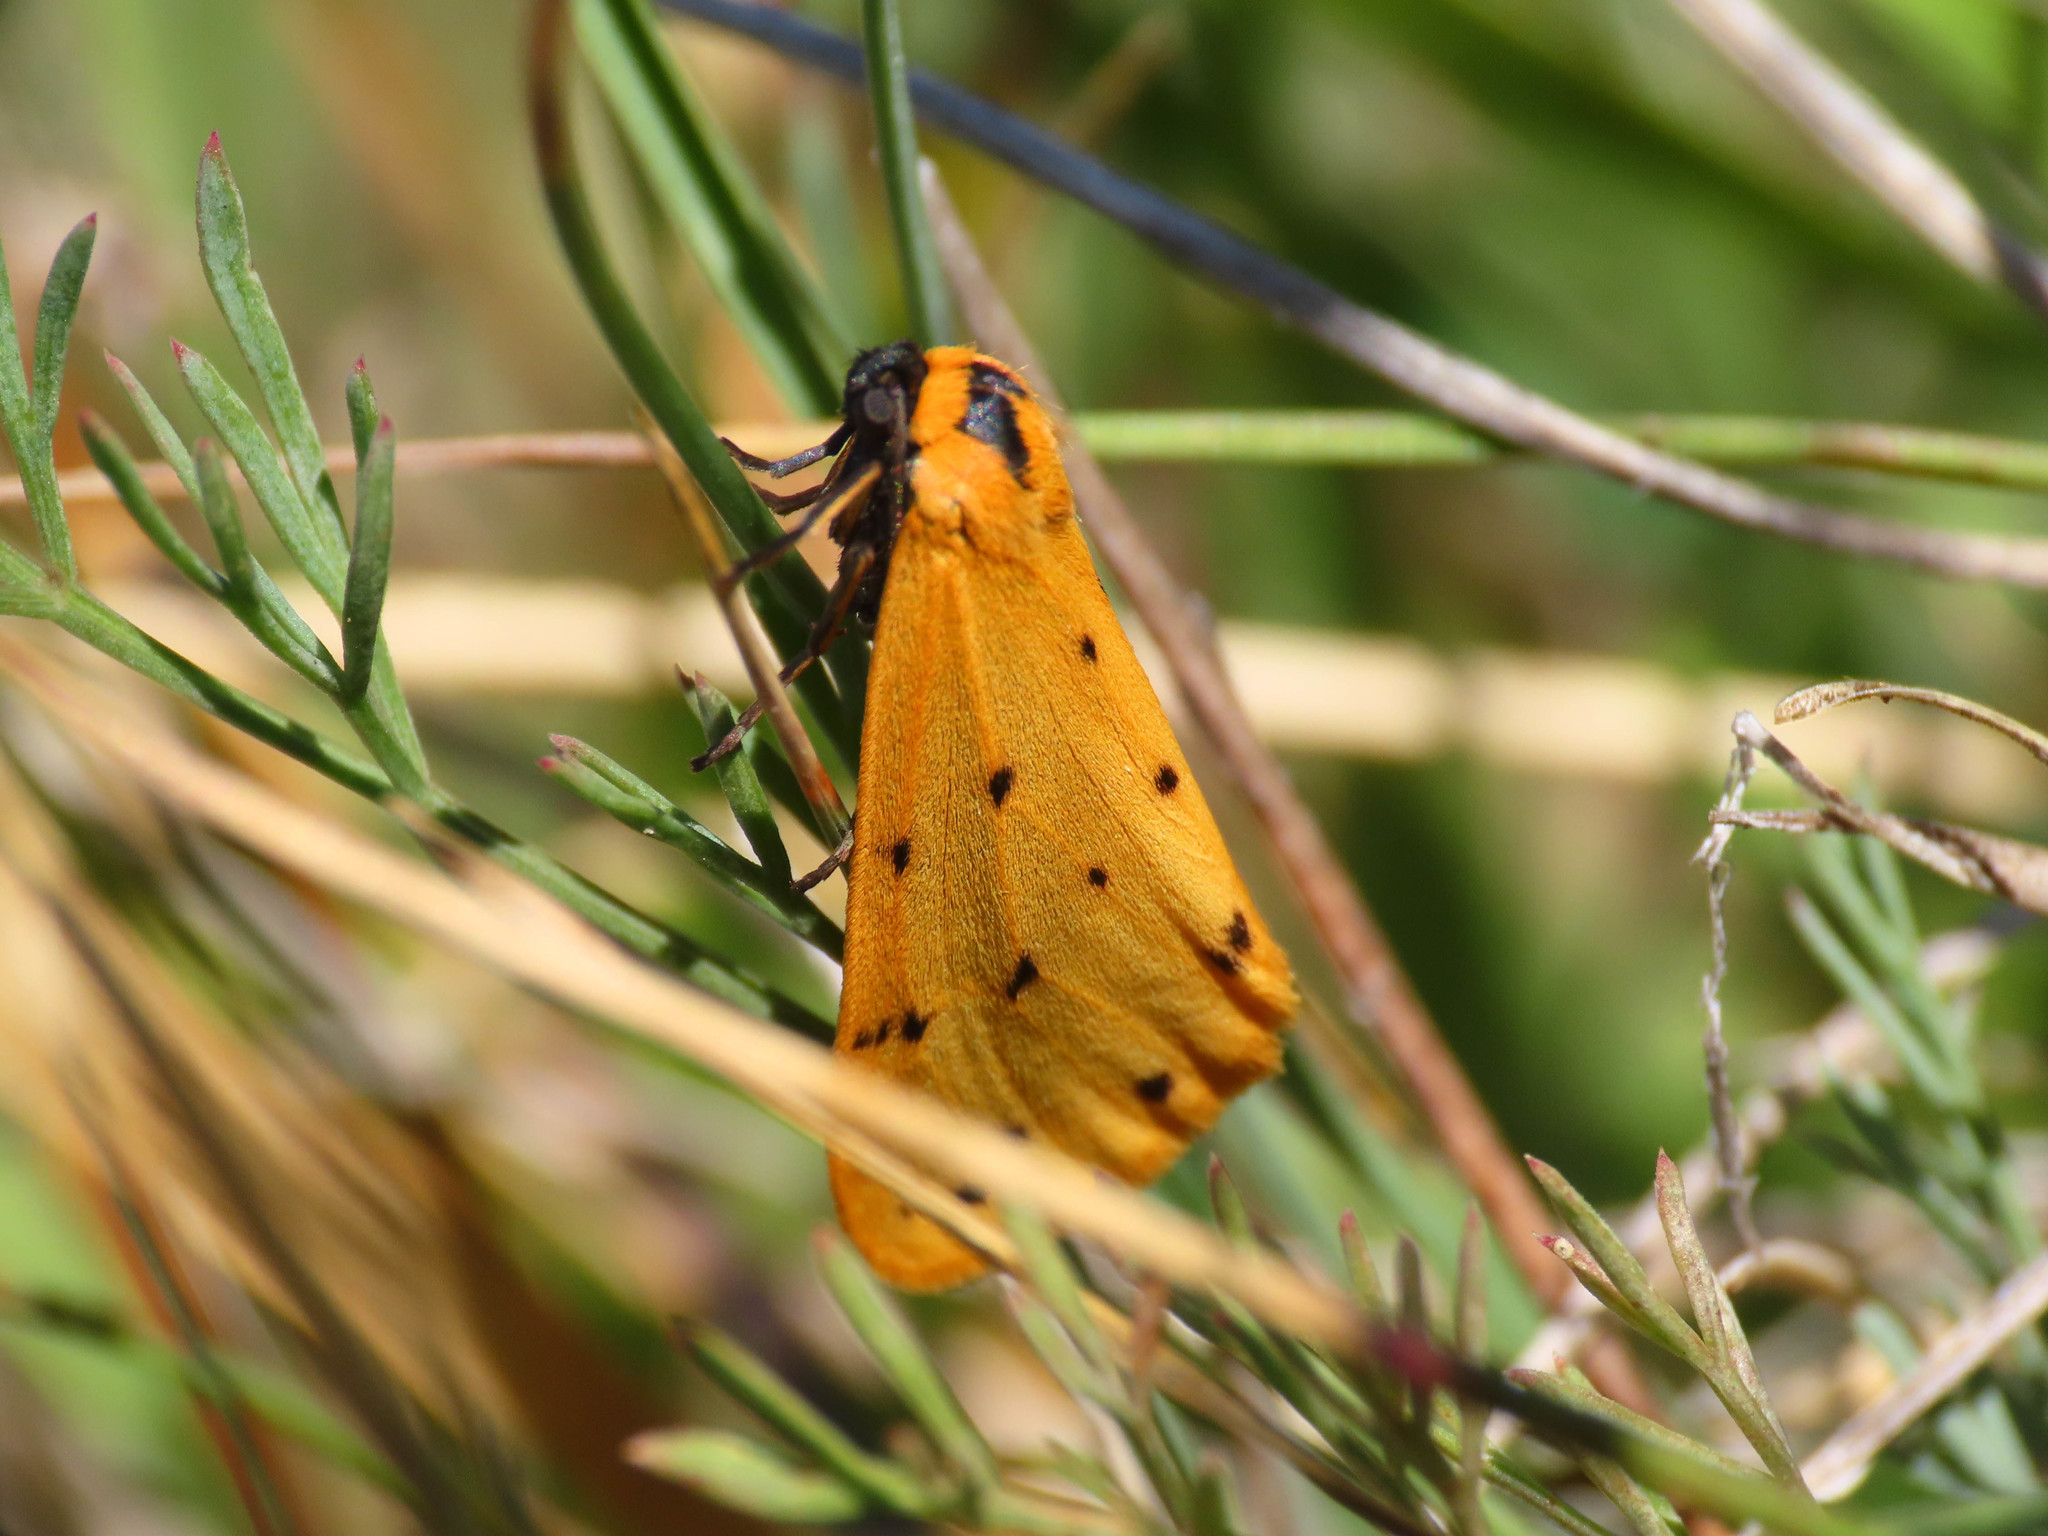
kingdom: Animalia
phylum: Arthropoda
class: Insecta
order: Lepidoptera
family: Erebidae
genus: Setina
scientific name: Setina irrorella
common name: Dew moth
